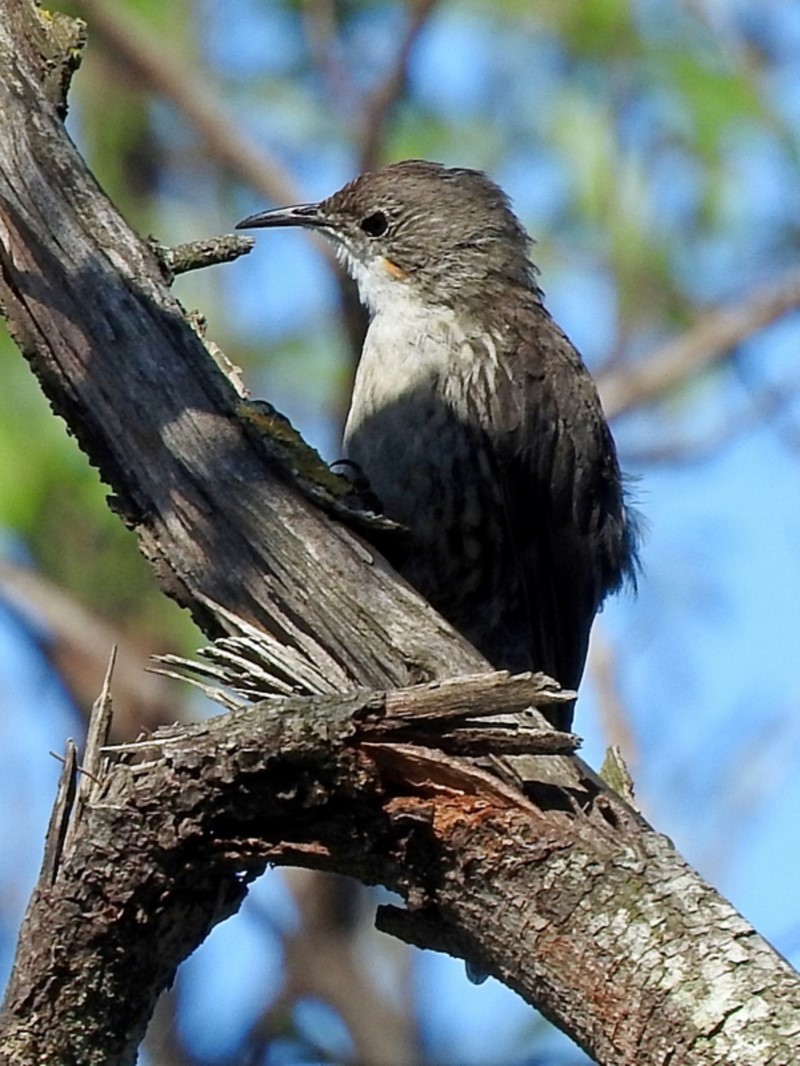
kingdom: Animalia
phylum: Chordata
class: Aves
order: Passeriformes
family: Climacteridae
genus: Cormobates
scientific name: Cormobates leucophaea
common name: White-throated treecreeper
